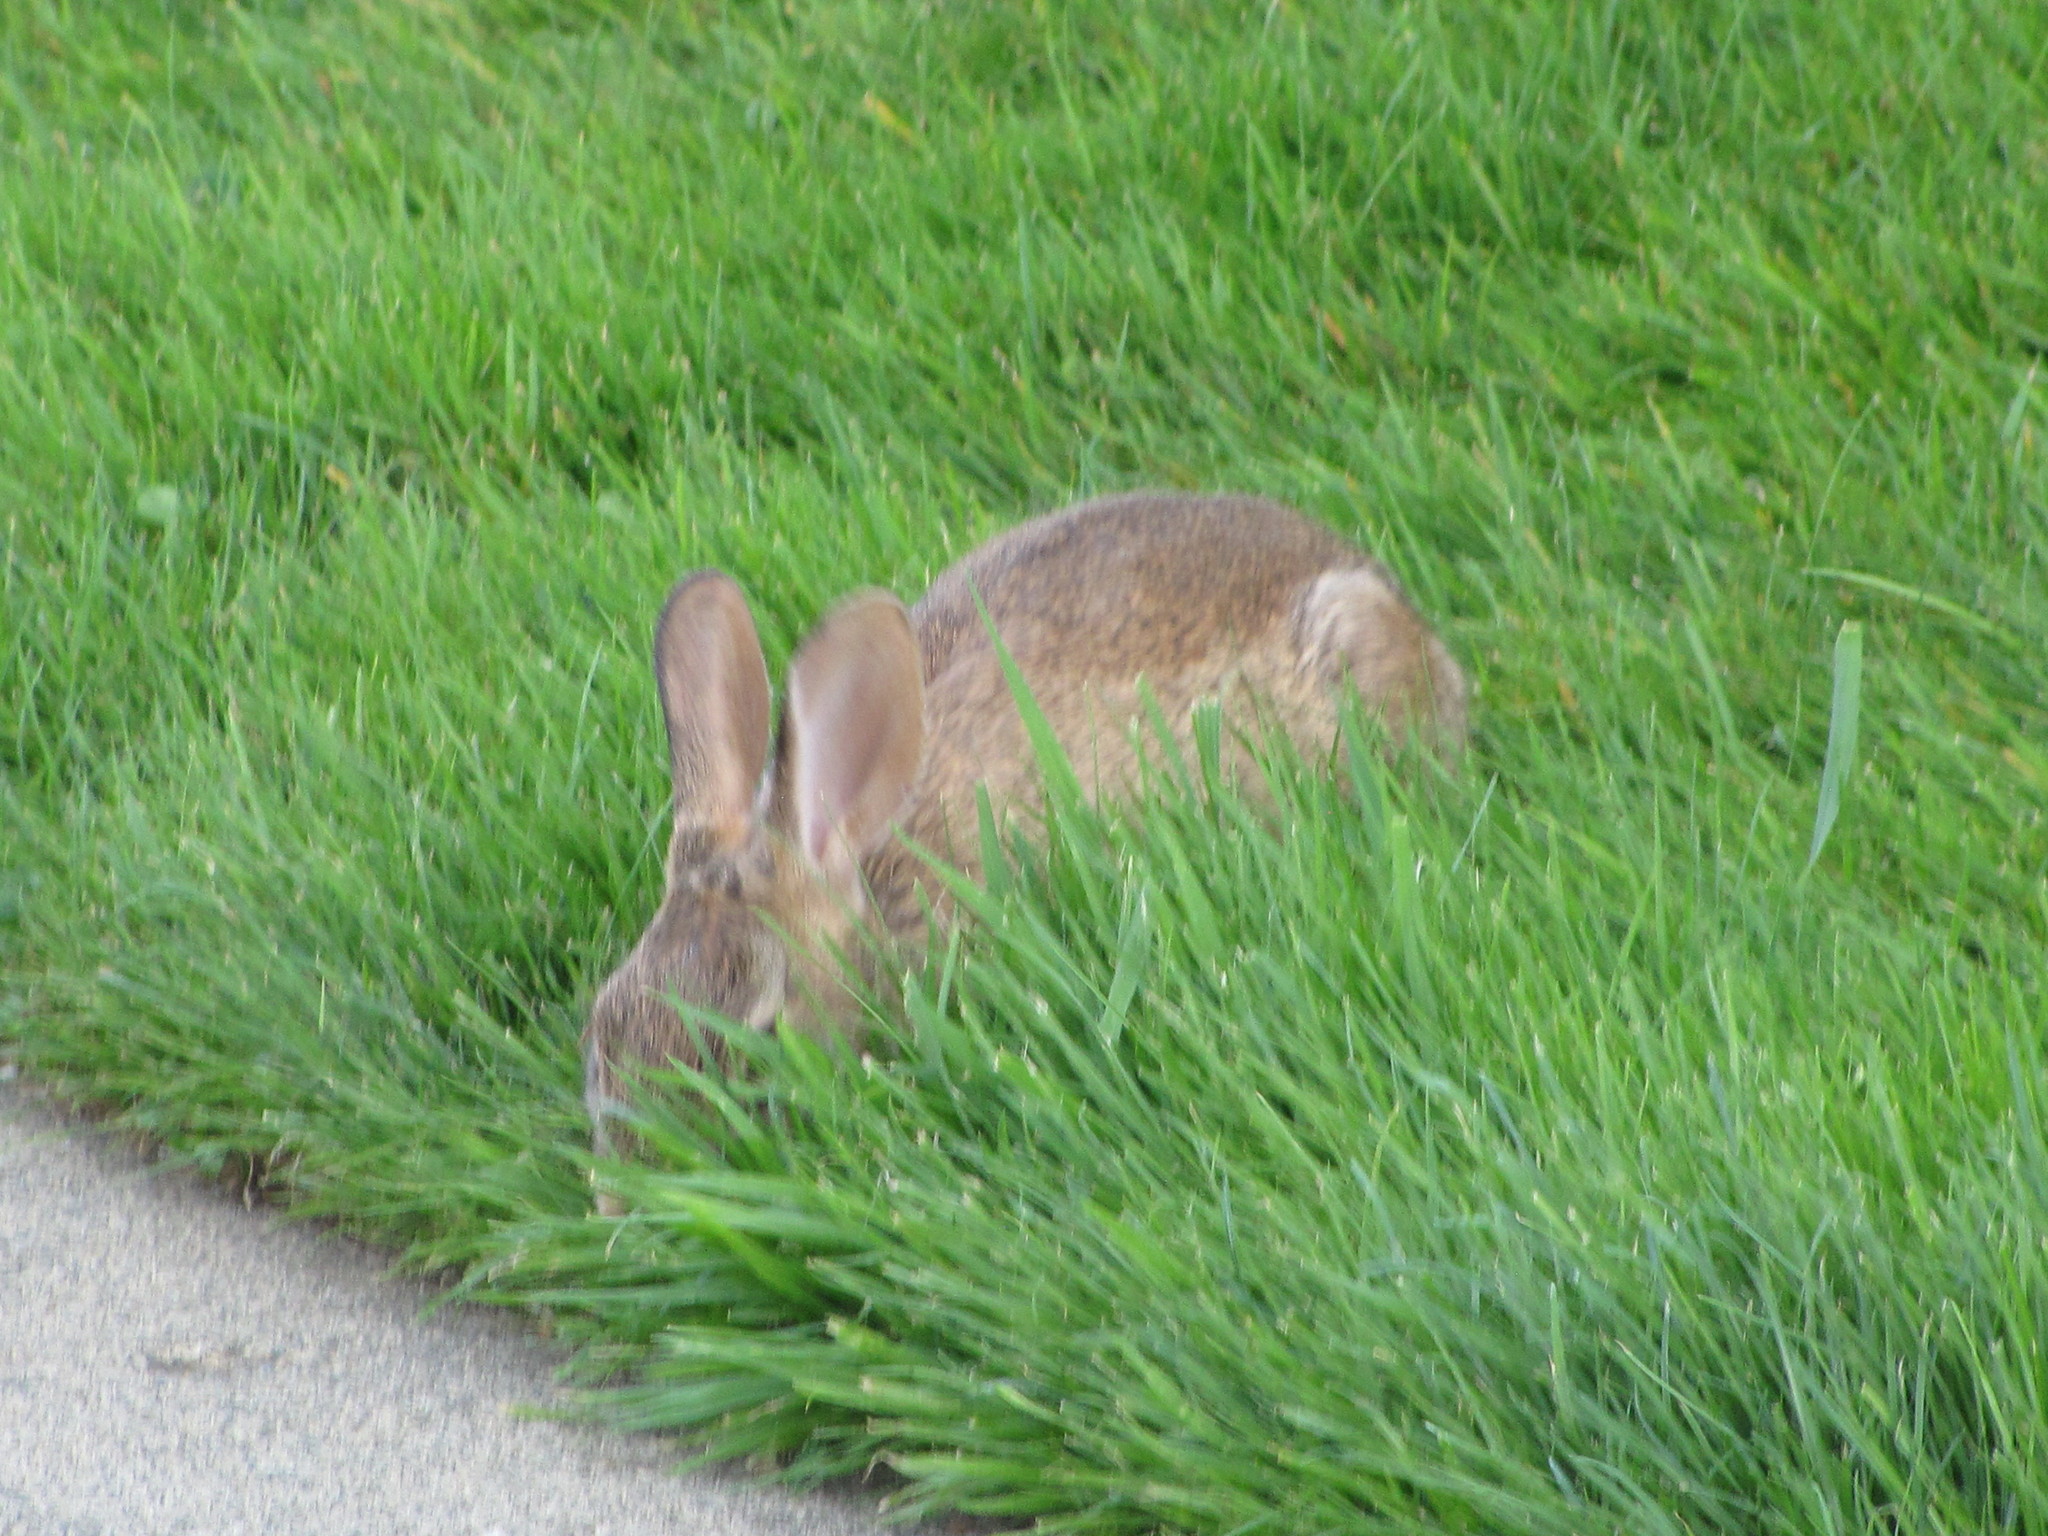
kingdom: Animalia
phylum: Chordata
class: Mammalia
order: Lagomorpha
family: Leporidae
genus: Oryctolagus
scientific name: Oryctolagus cuniculus
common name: European rabbit
